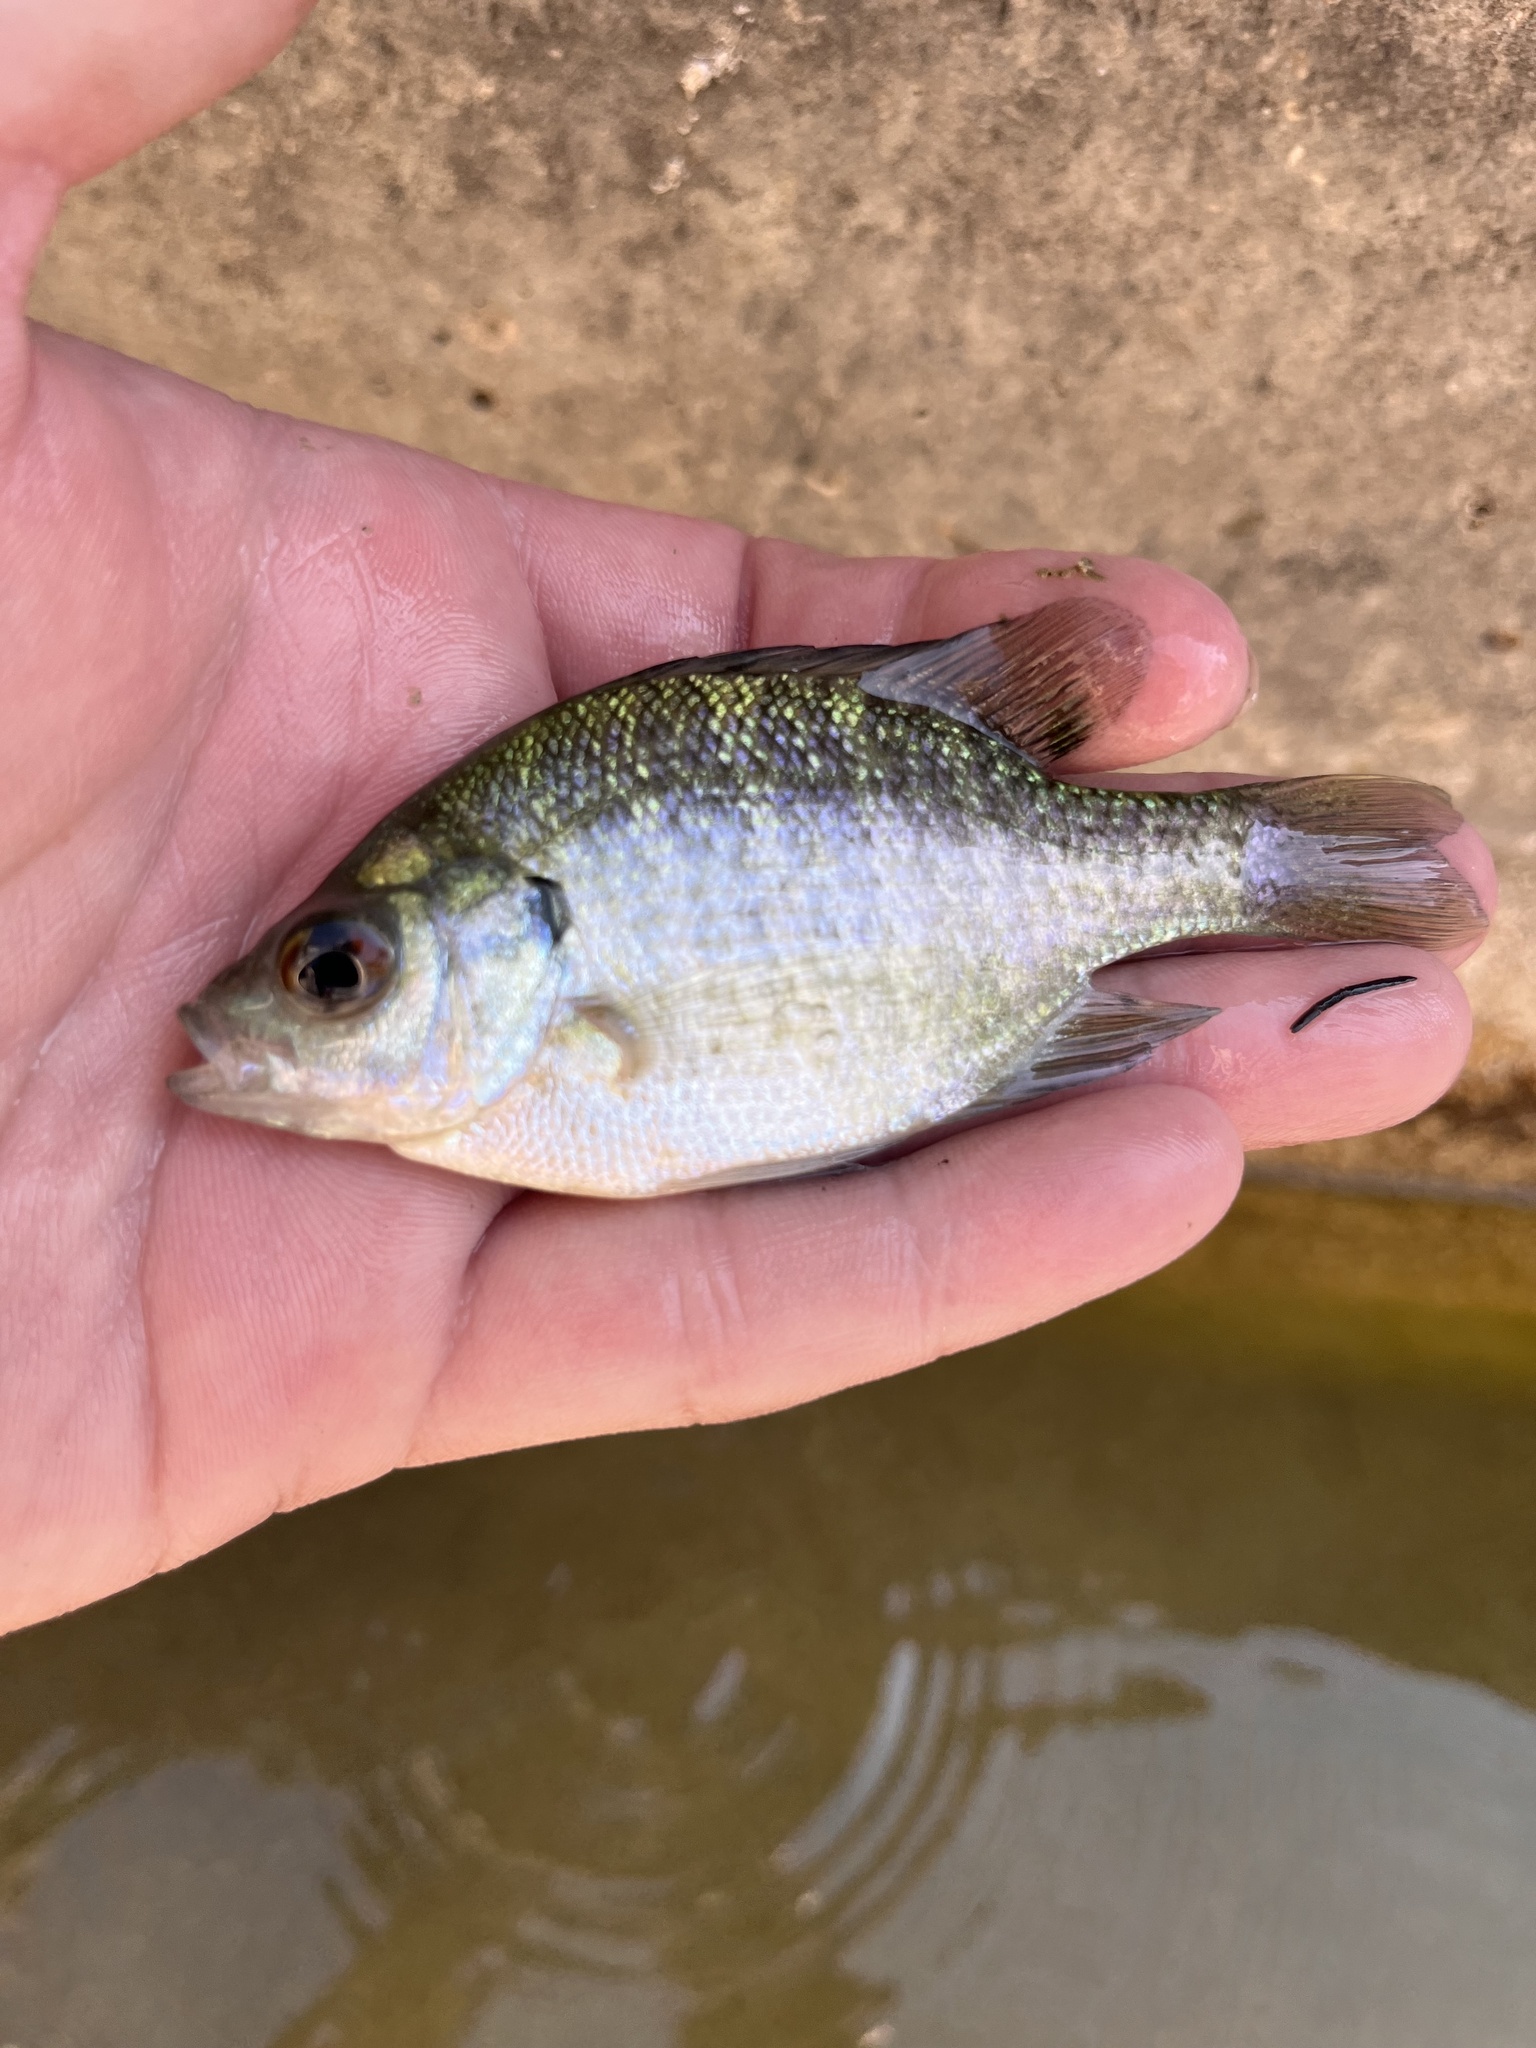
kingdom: Animalia
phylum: Chordata
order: Perciformes
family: Centrarchidae
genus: Lepomis
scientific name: Lepomis macrochirus
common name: Bluegill
